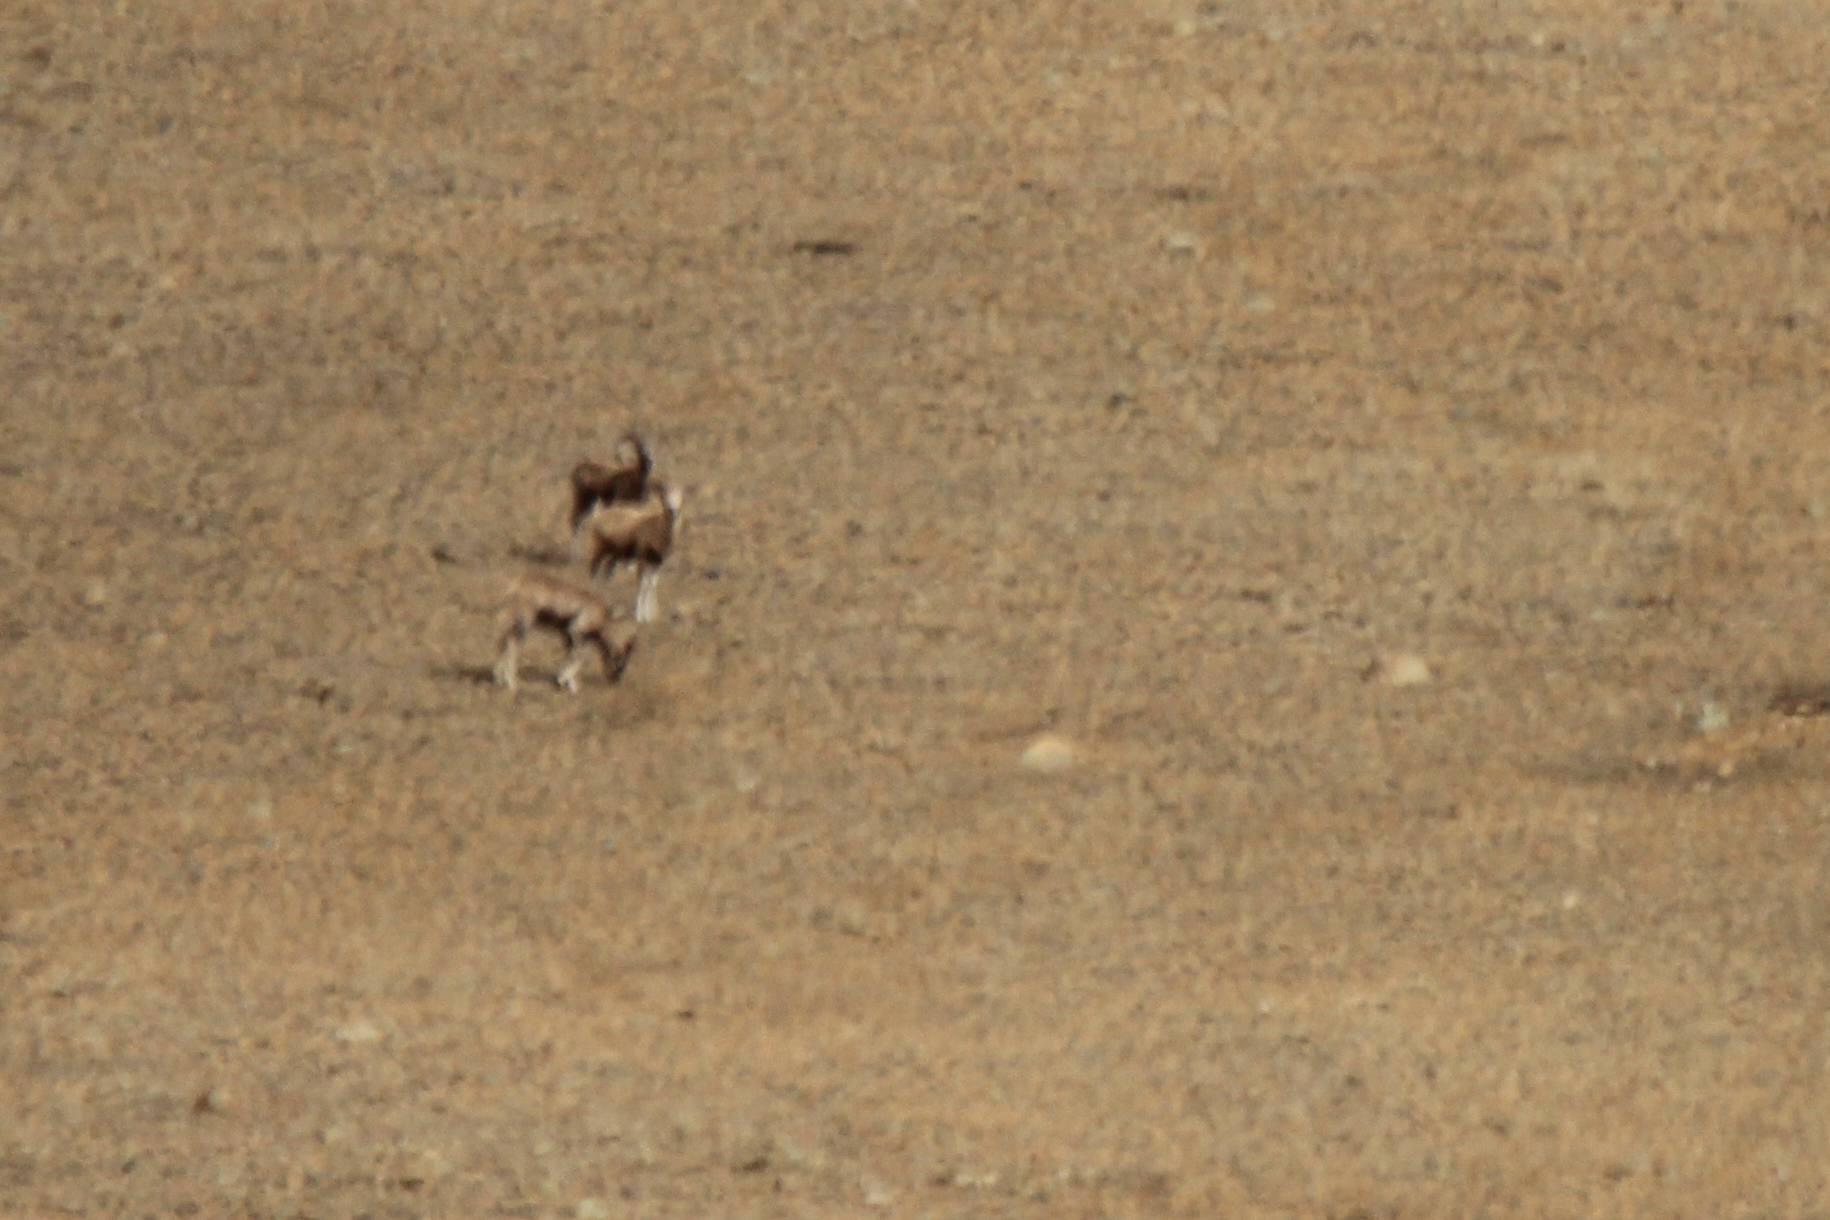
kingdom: Animalia
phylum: Chordata
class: Mammalia
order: Artiodactyla
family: Bovidae
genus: Ovis
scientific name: Ovis ammon
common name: Argali
